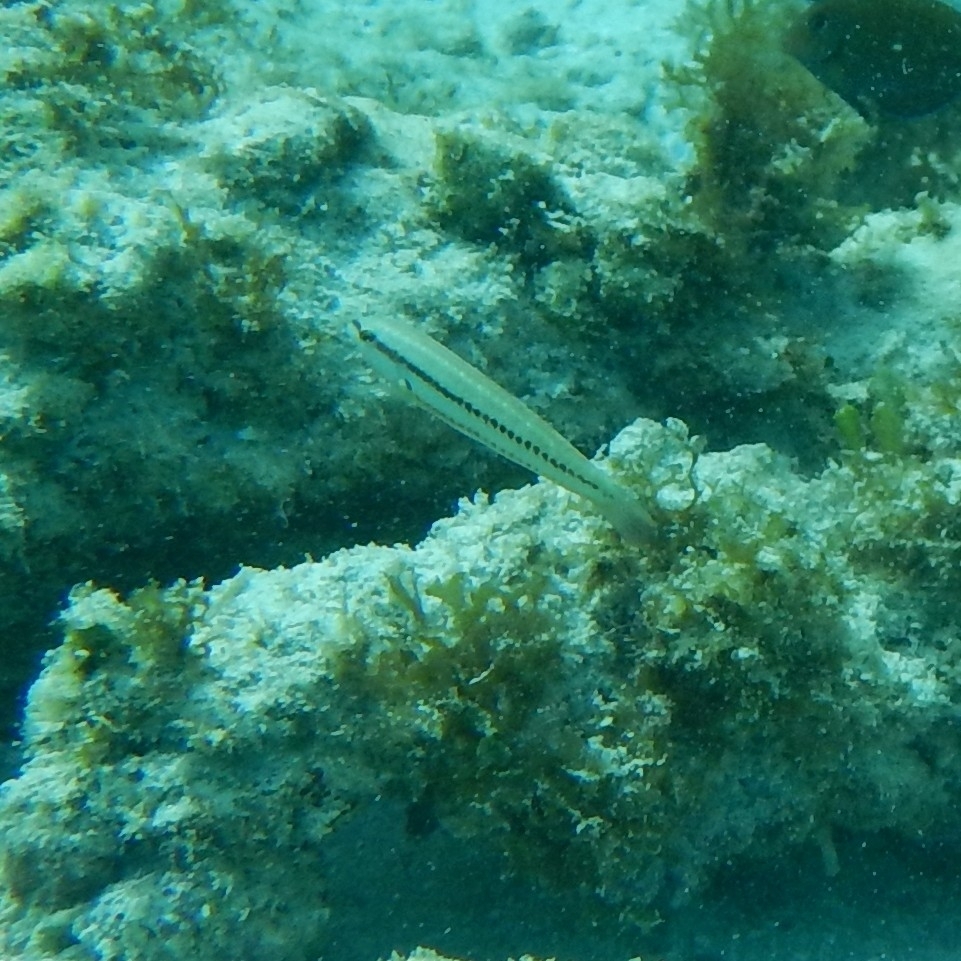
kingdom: Animalia
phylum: Chordata
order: Perciformes
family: Labridae
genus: Halichoeres
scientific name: Halichoeres bivittatus
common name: Slippery dick
